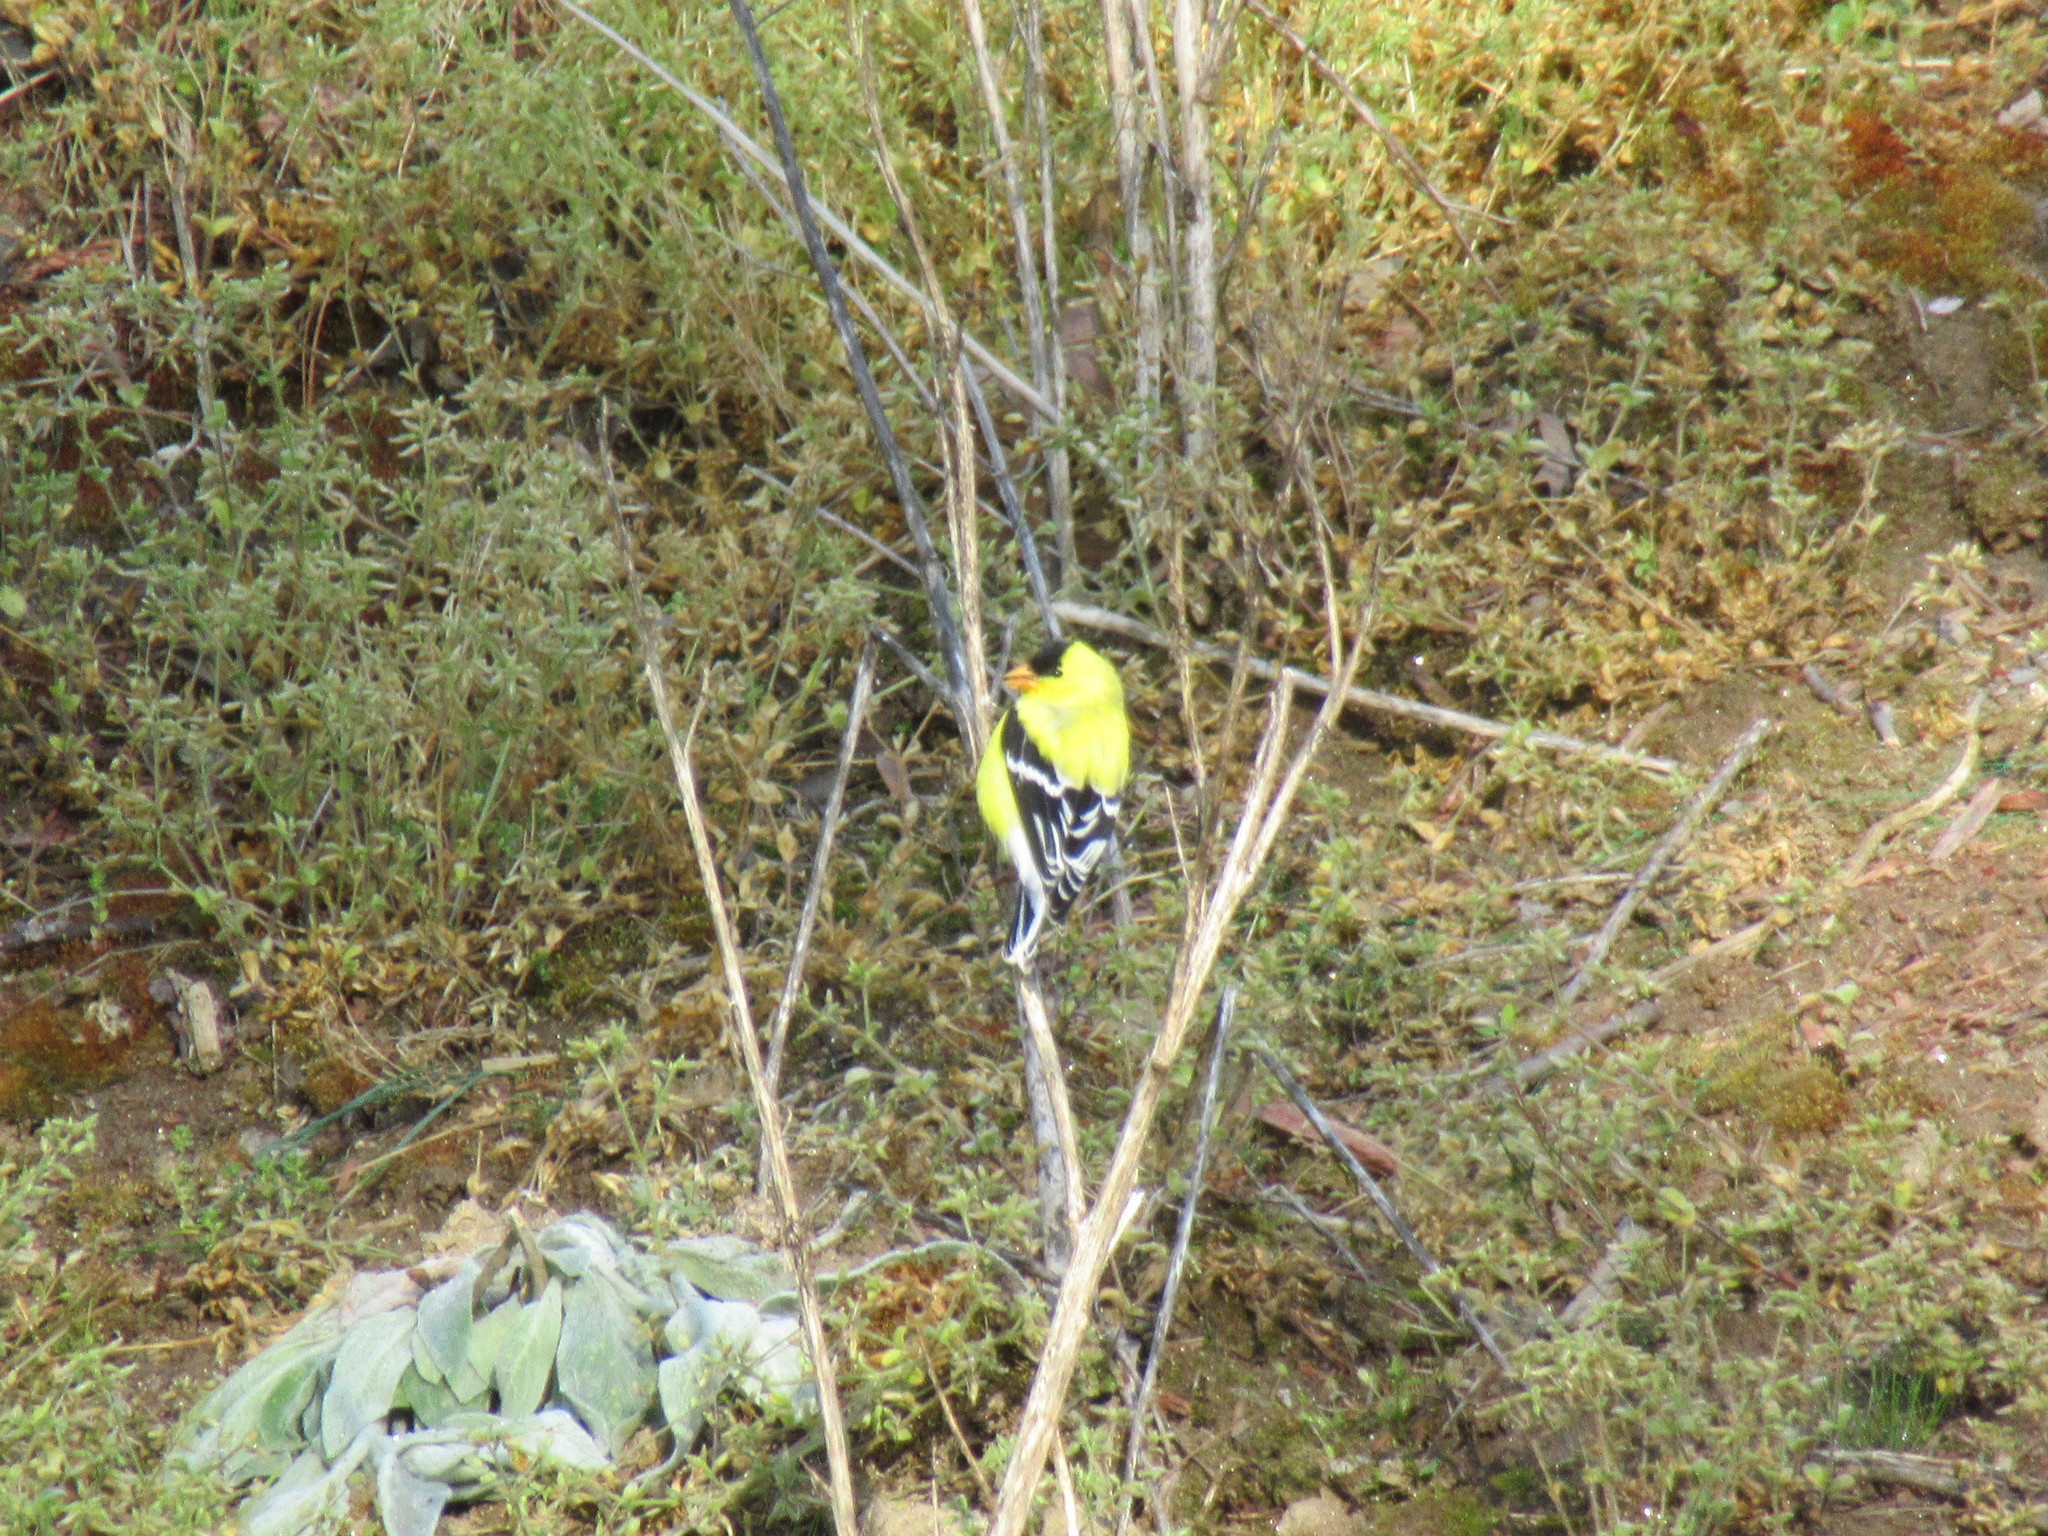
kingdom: Animalia
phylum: Chordata
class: Aves
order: Passeriformes
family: Fringillidae
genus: Spinus
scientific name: Spinus tristis
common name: American goldfinch
